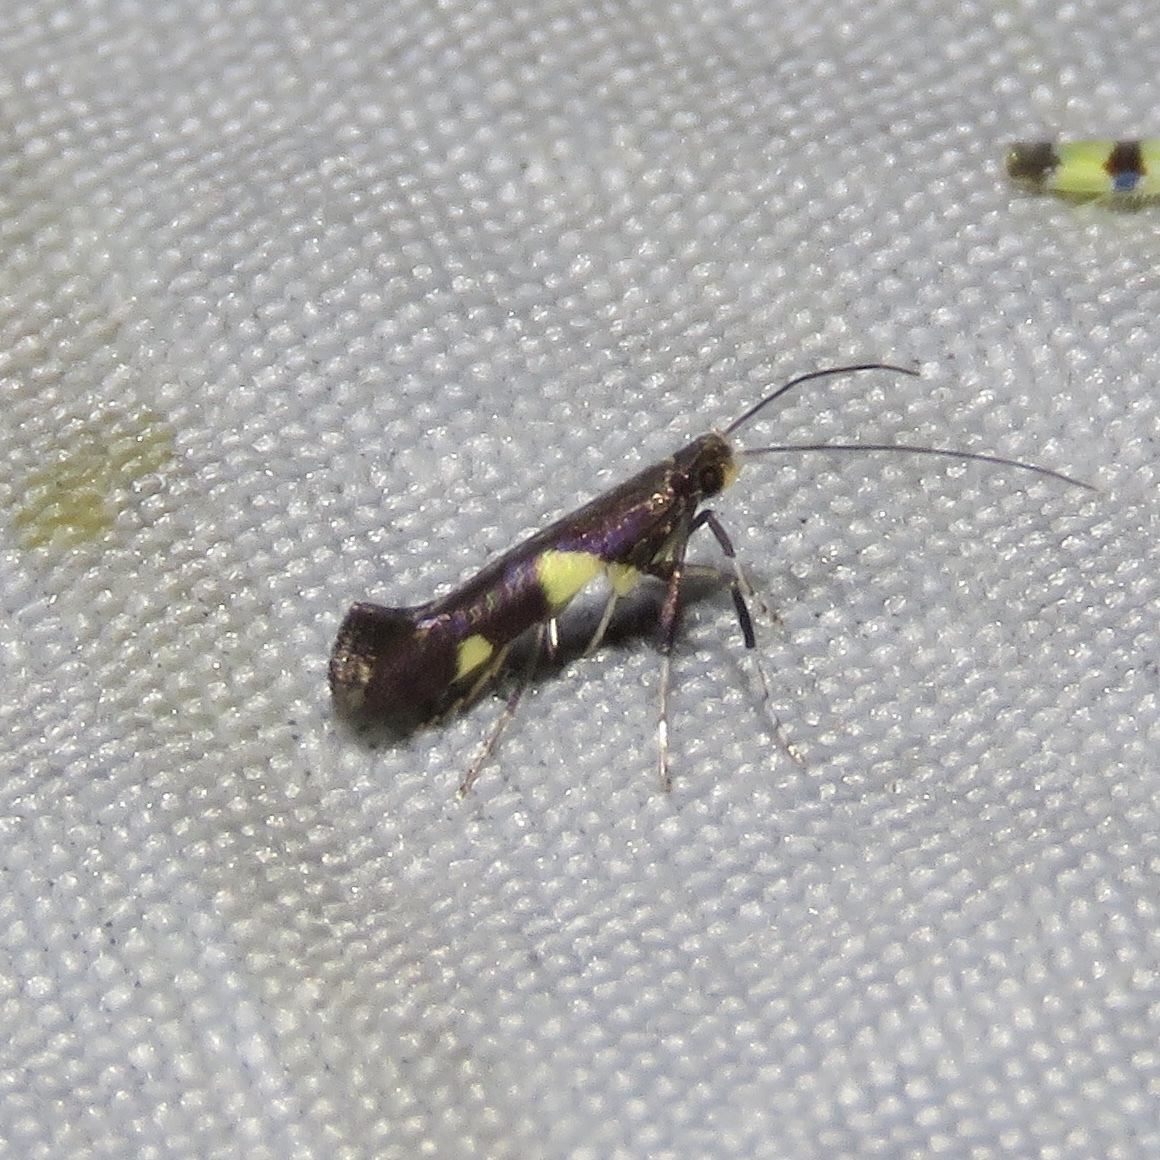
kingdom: Animalia
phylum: Arthropoda
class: Insecta
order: Lepidoptera
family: Gracillariidae
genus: Caloptilia
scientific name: Caloptilia cornusella
